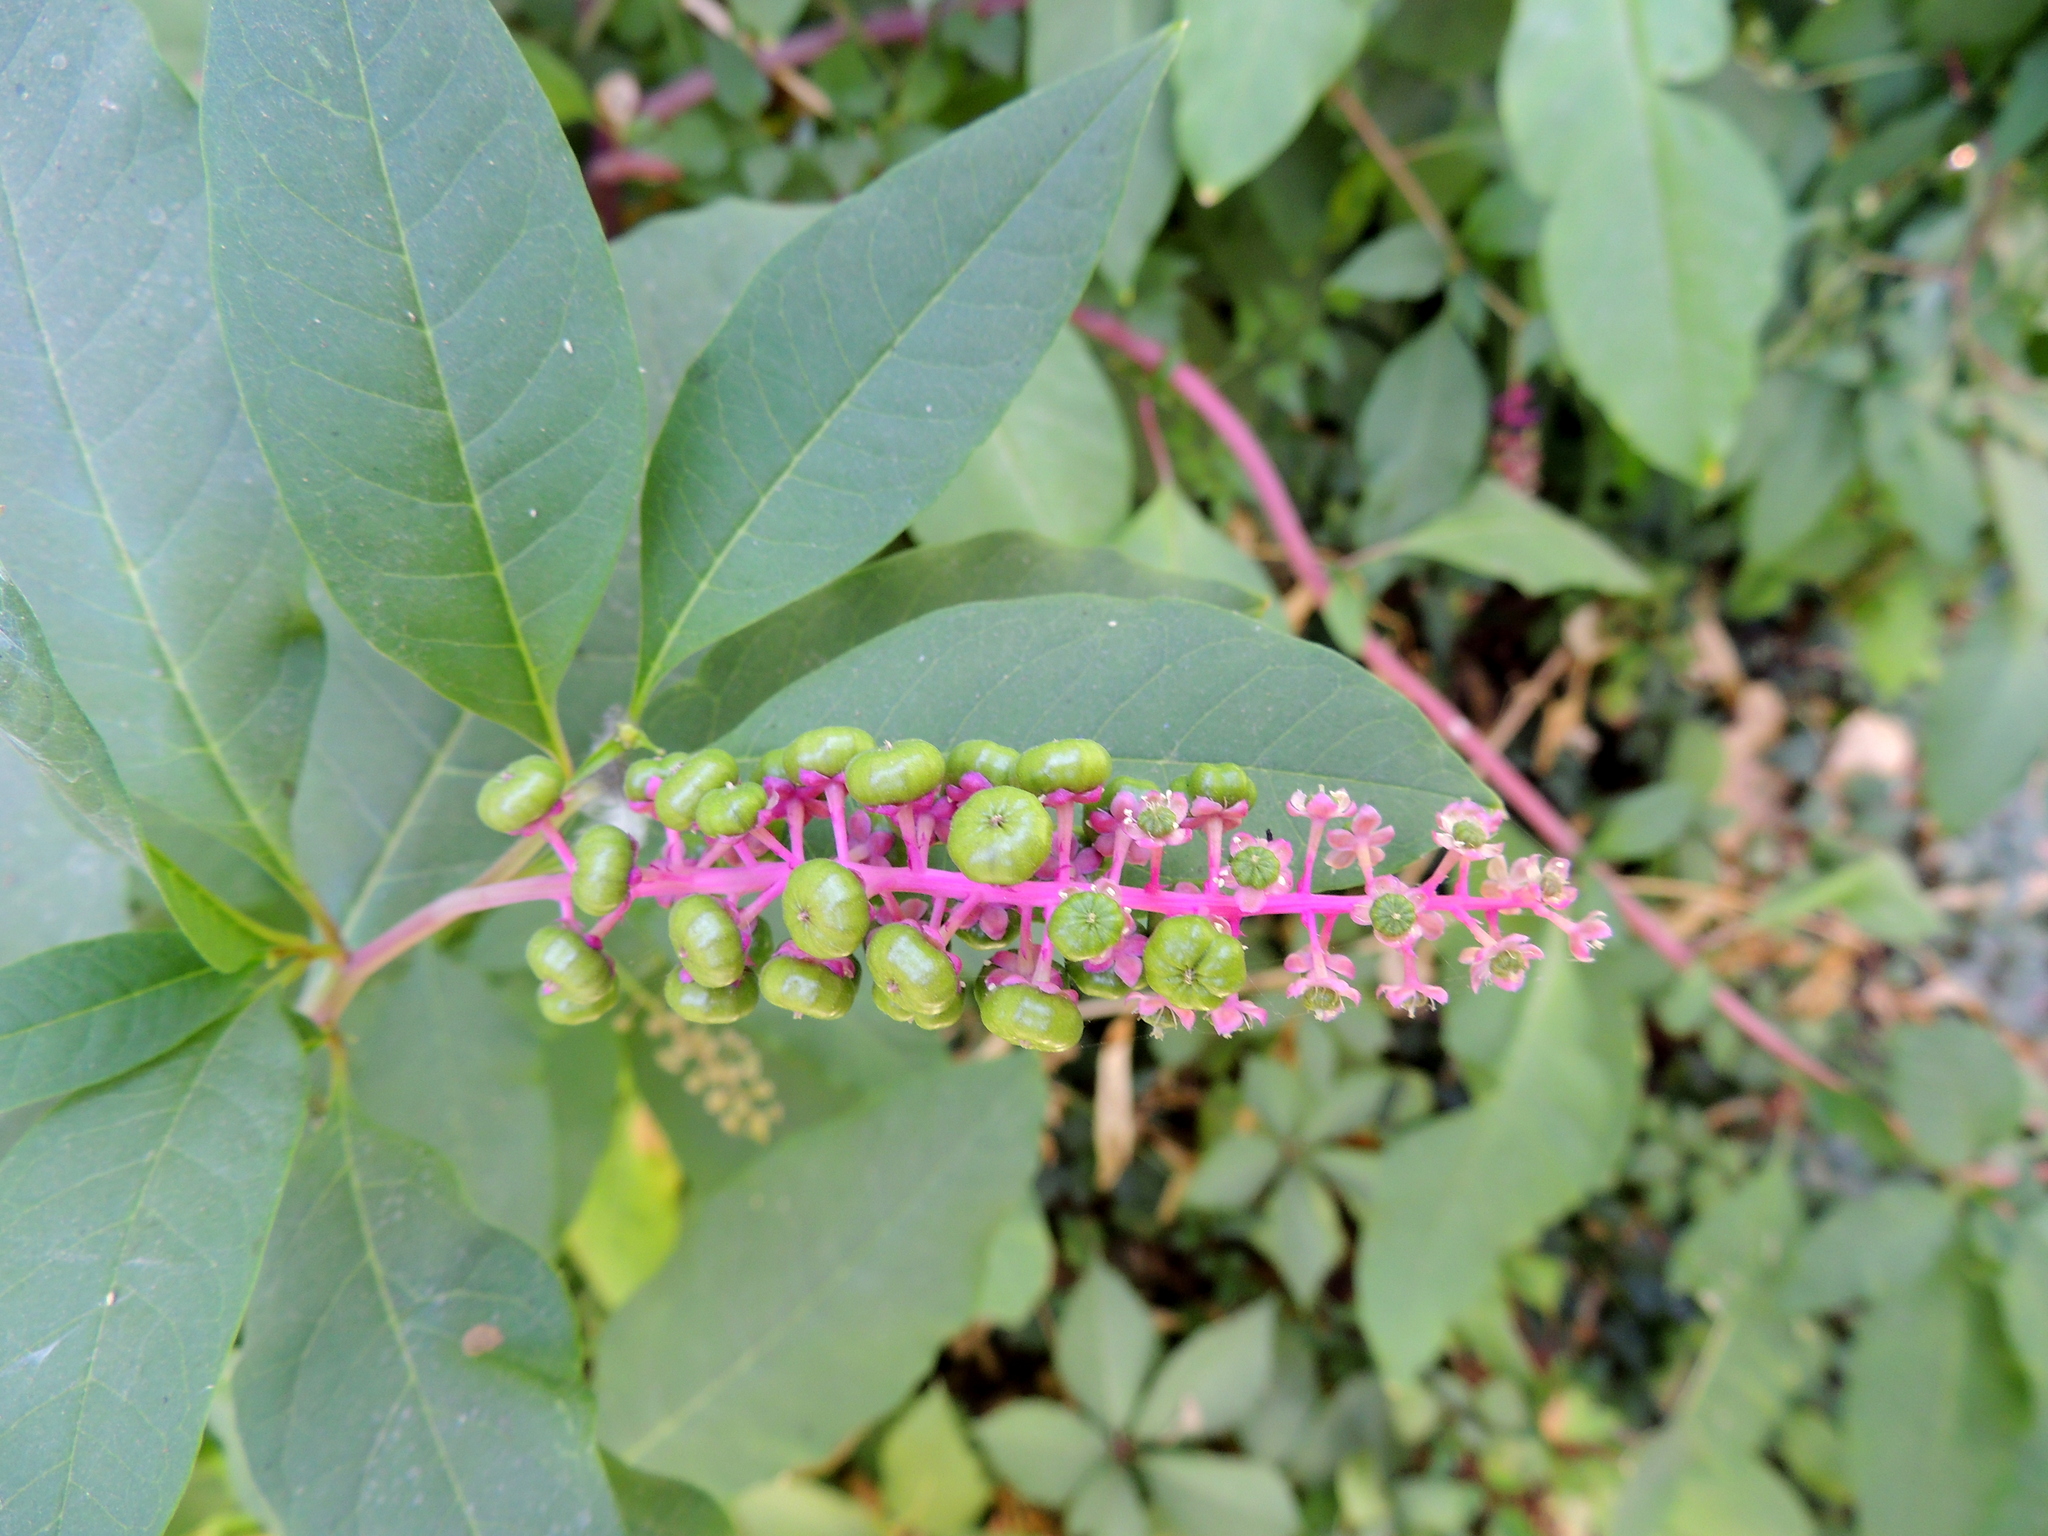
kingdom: Plantae
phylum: Tracheophyta
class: Magnoliopsida
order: Caryophyllales
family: Phytolaccaceae
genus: Phytolacca
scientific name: Phytolacca americana
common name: American pokeweed
